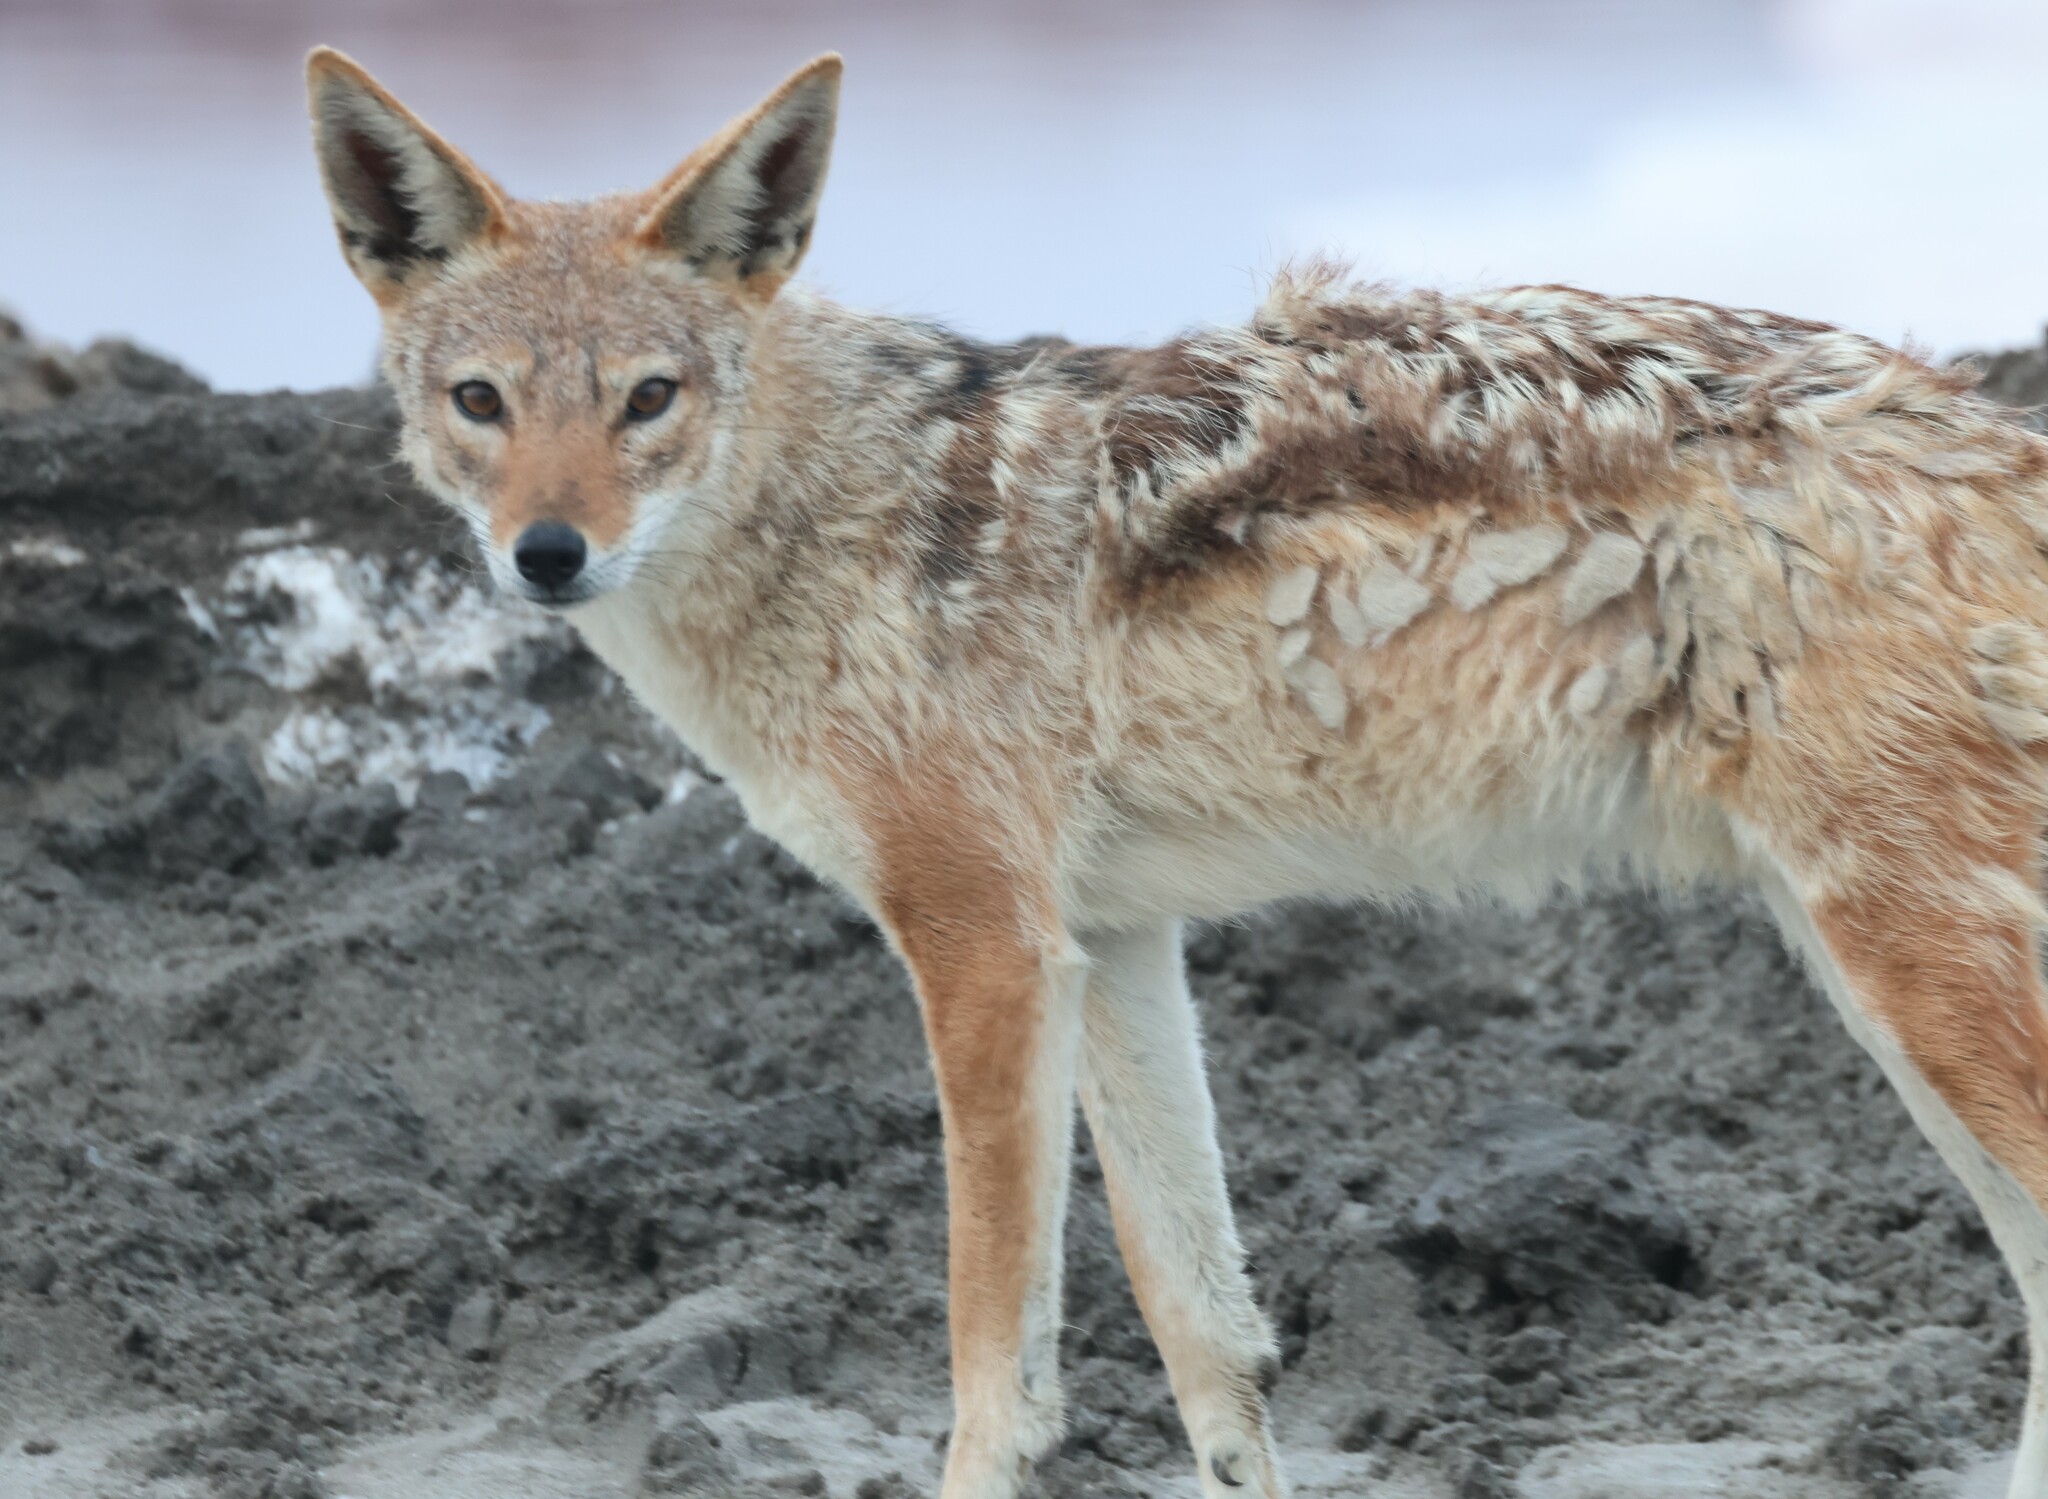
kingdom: Animalia
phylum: Chordata
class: Mammalia
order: Carnivora
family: Canidae
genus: Lupulella
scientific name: Lupulella
